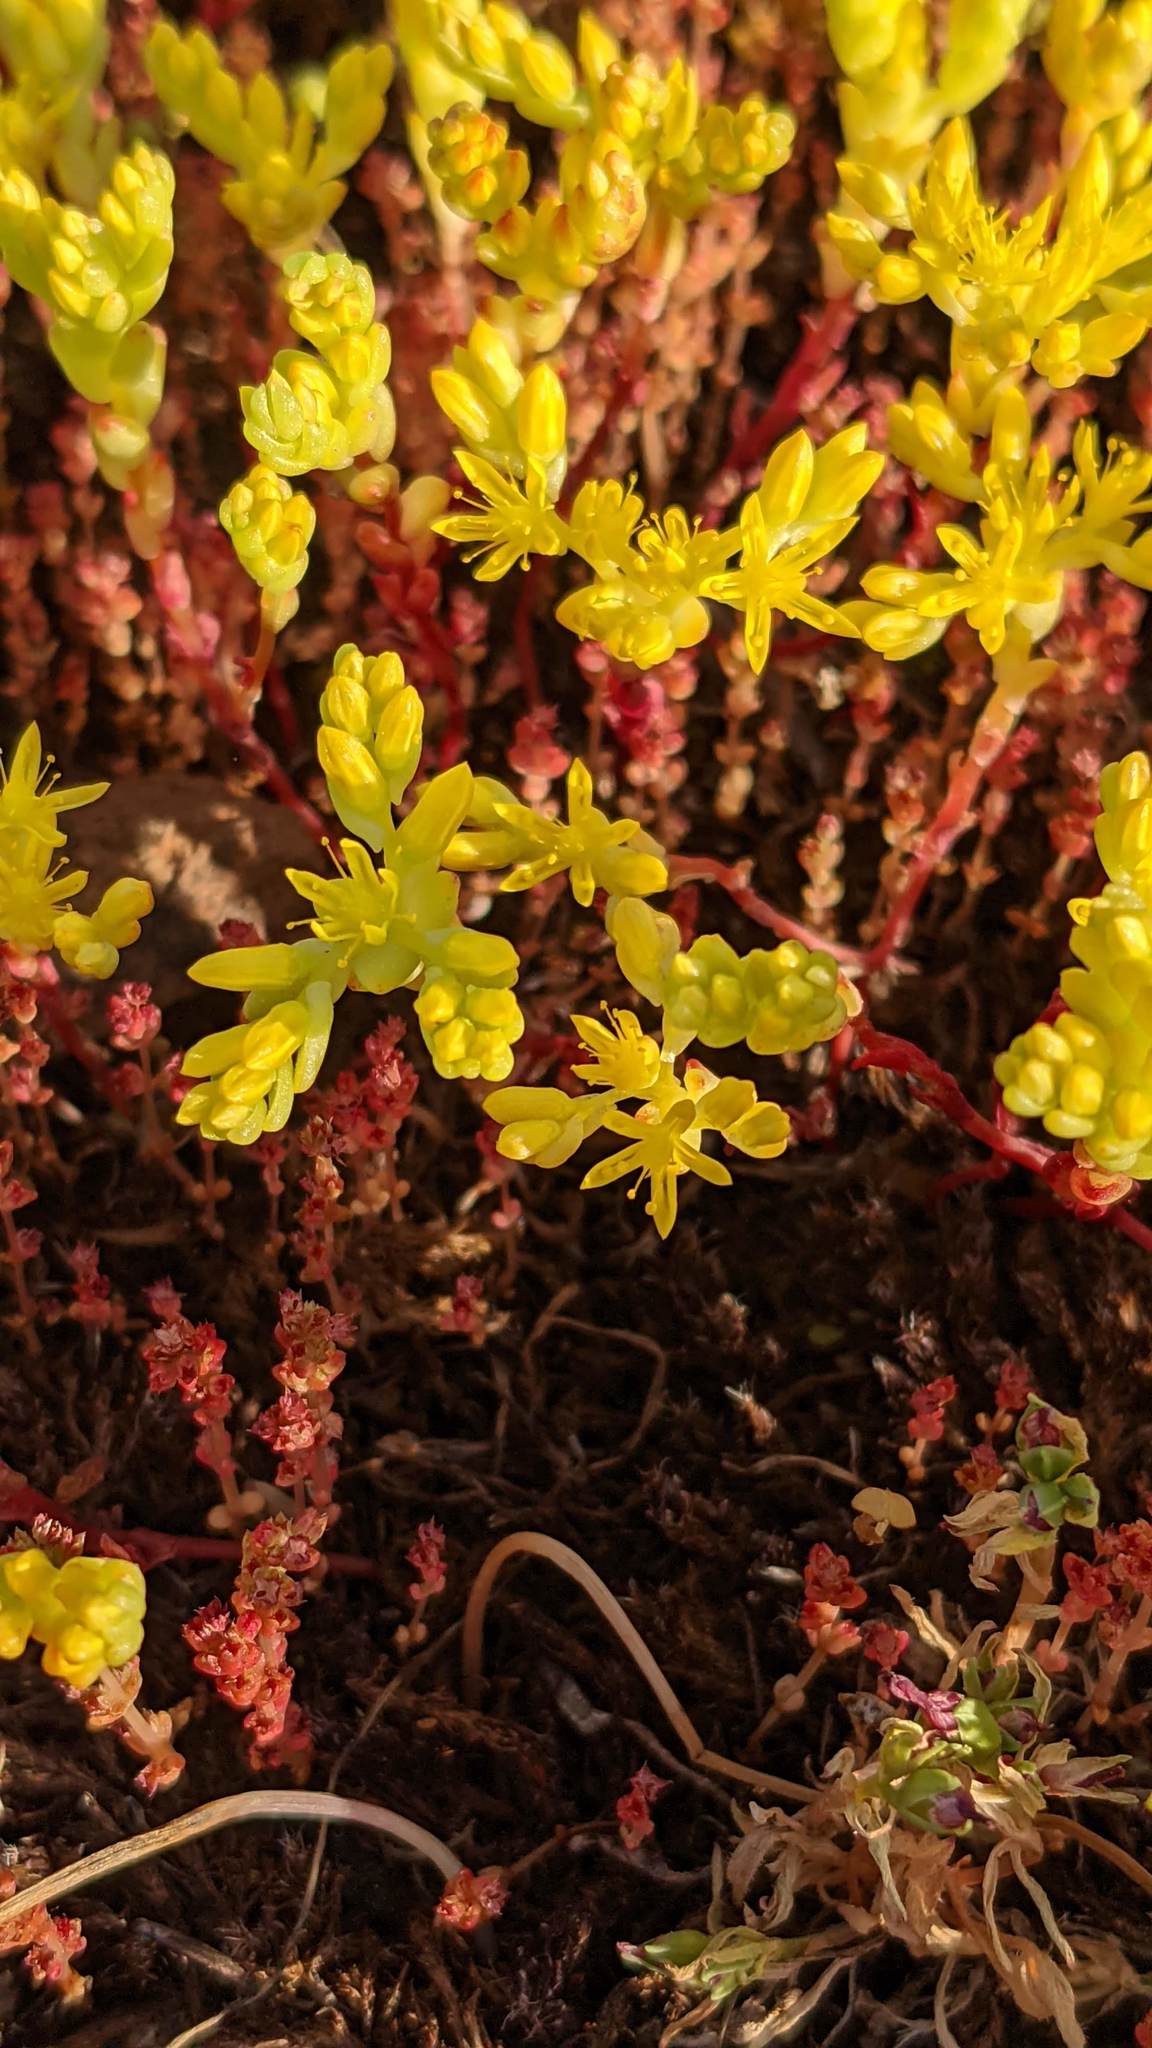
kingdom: Plantae
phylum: Tracheophyta
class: Magnoliopsida
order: Saxifragales
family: Crassulaceae
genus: Sedella
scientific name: Sedella pumila
